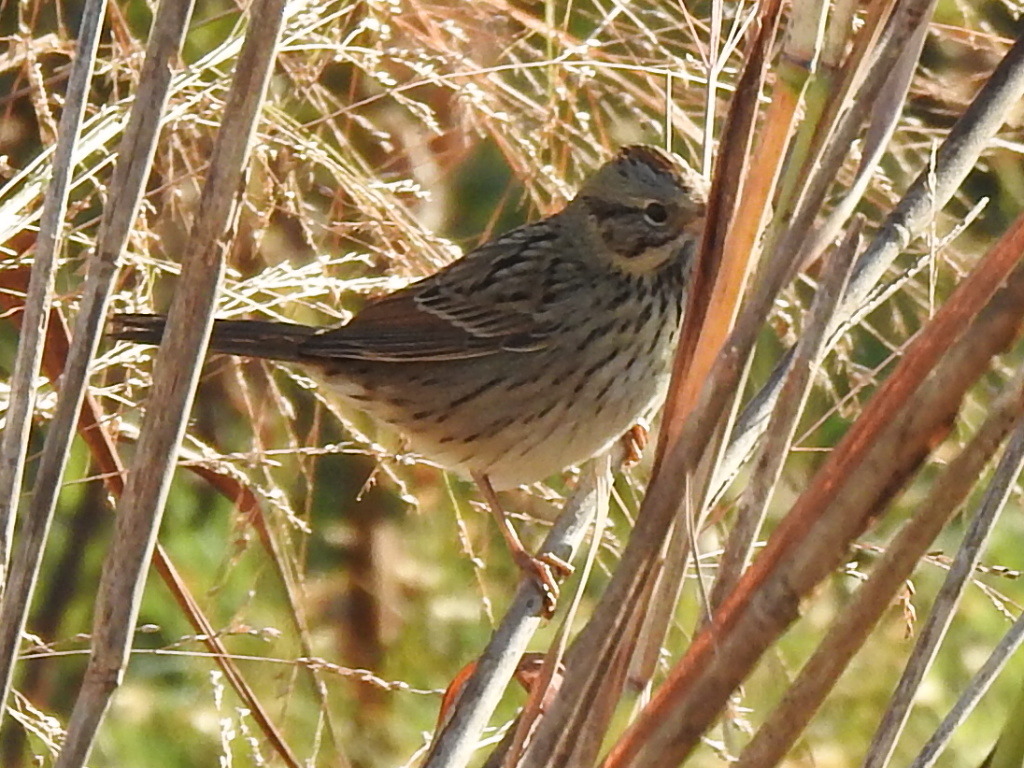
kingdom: Animalia
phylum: Chordata
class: Aves
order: Passeriformes
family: Passerellidae
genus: Melospiza
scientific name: Melospiza lincolnii
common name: Lincoln's sparrow
